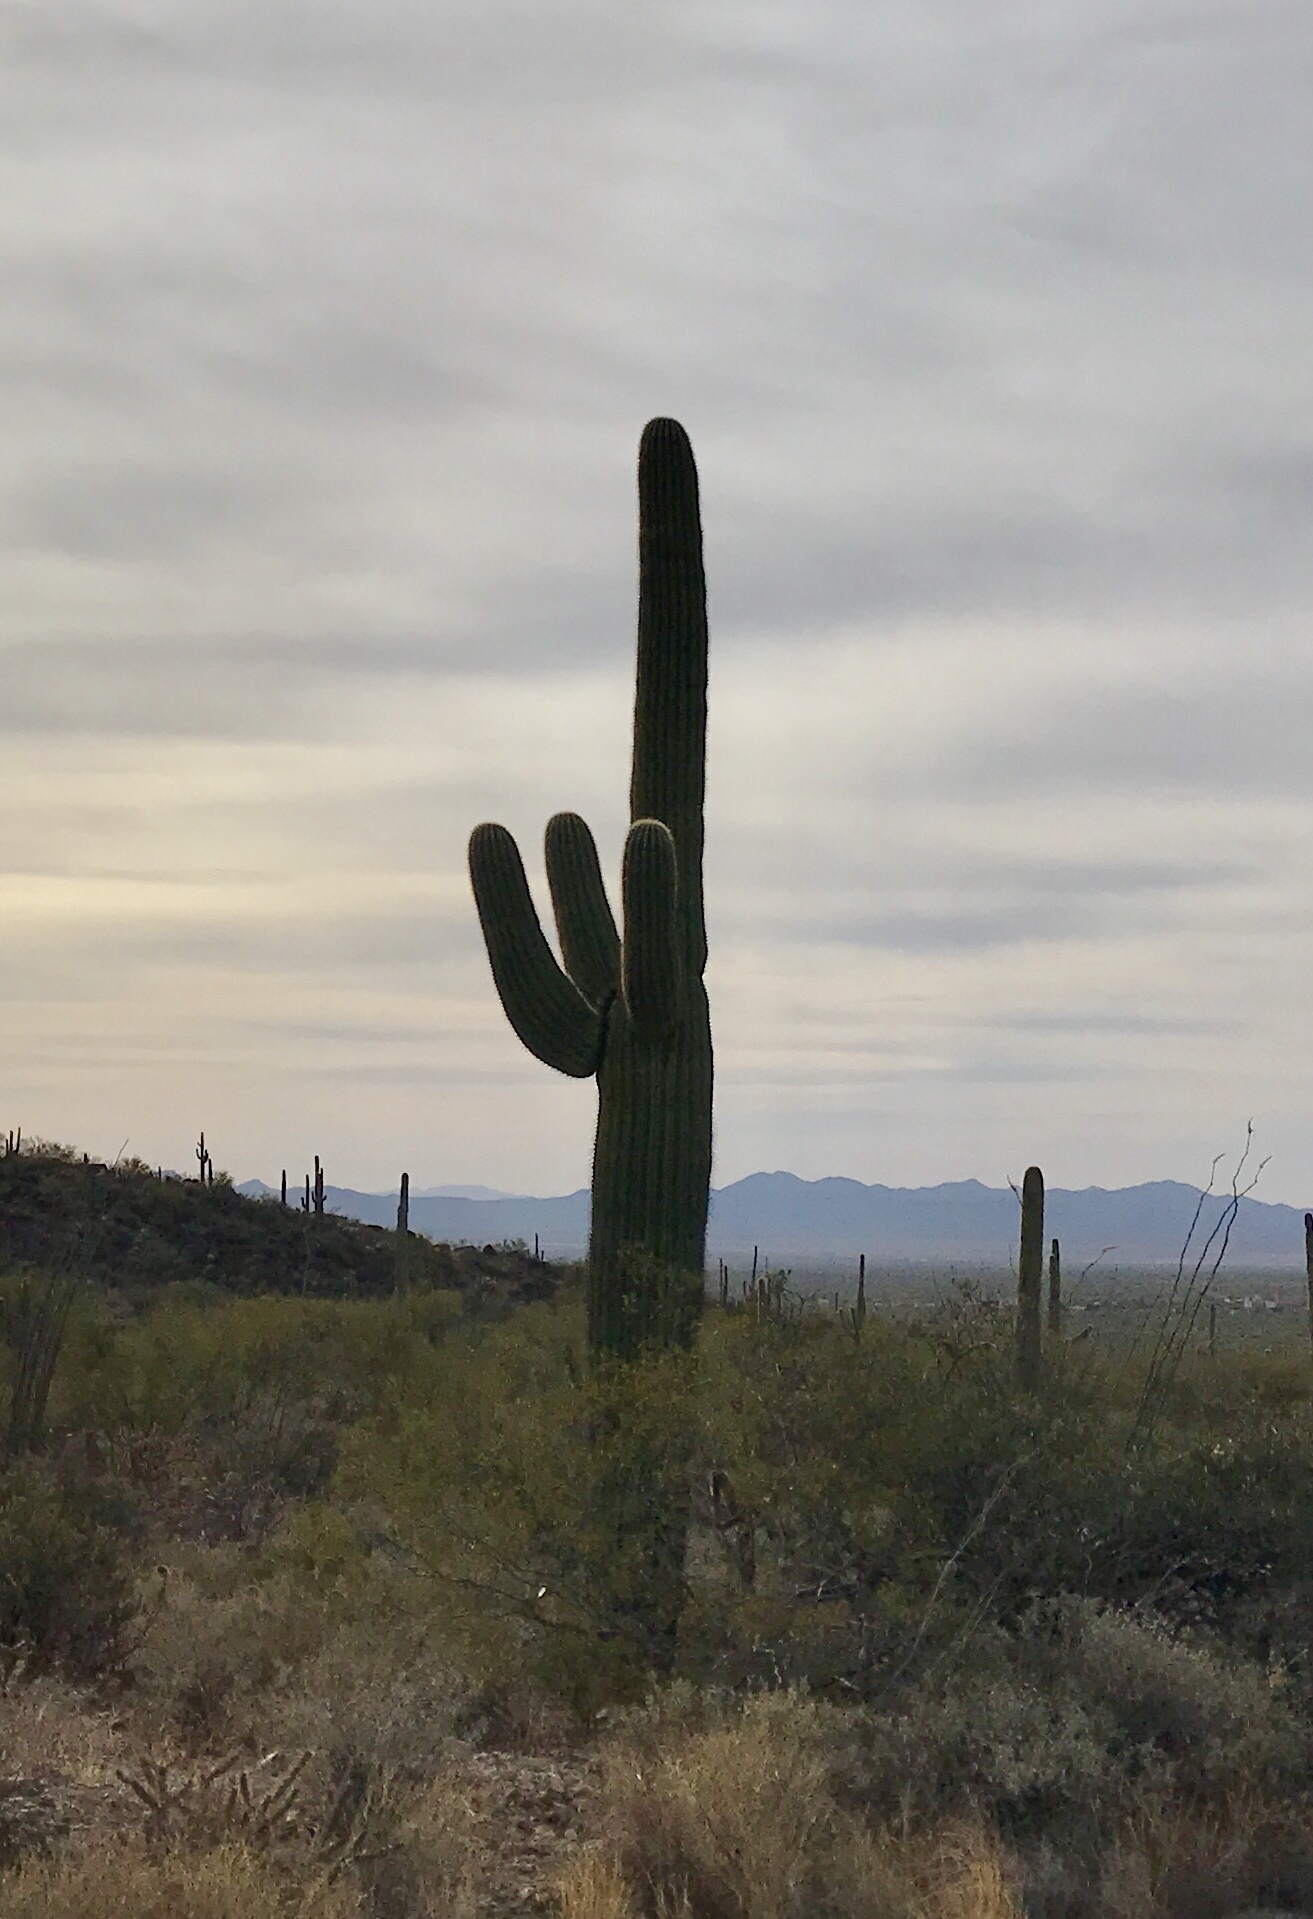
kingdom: Plantae
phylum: Tracheophyta
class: Magnoliopsida
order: Caryophyllales
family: Cactaceae
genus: Carnegiea
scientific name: Carnegiea gigantea
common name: Saguaro
